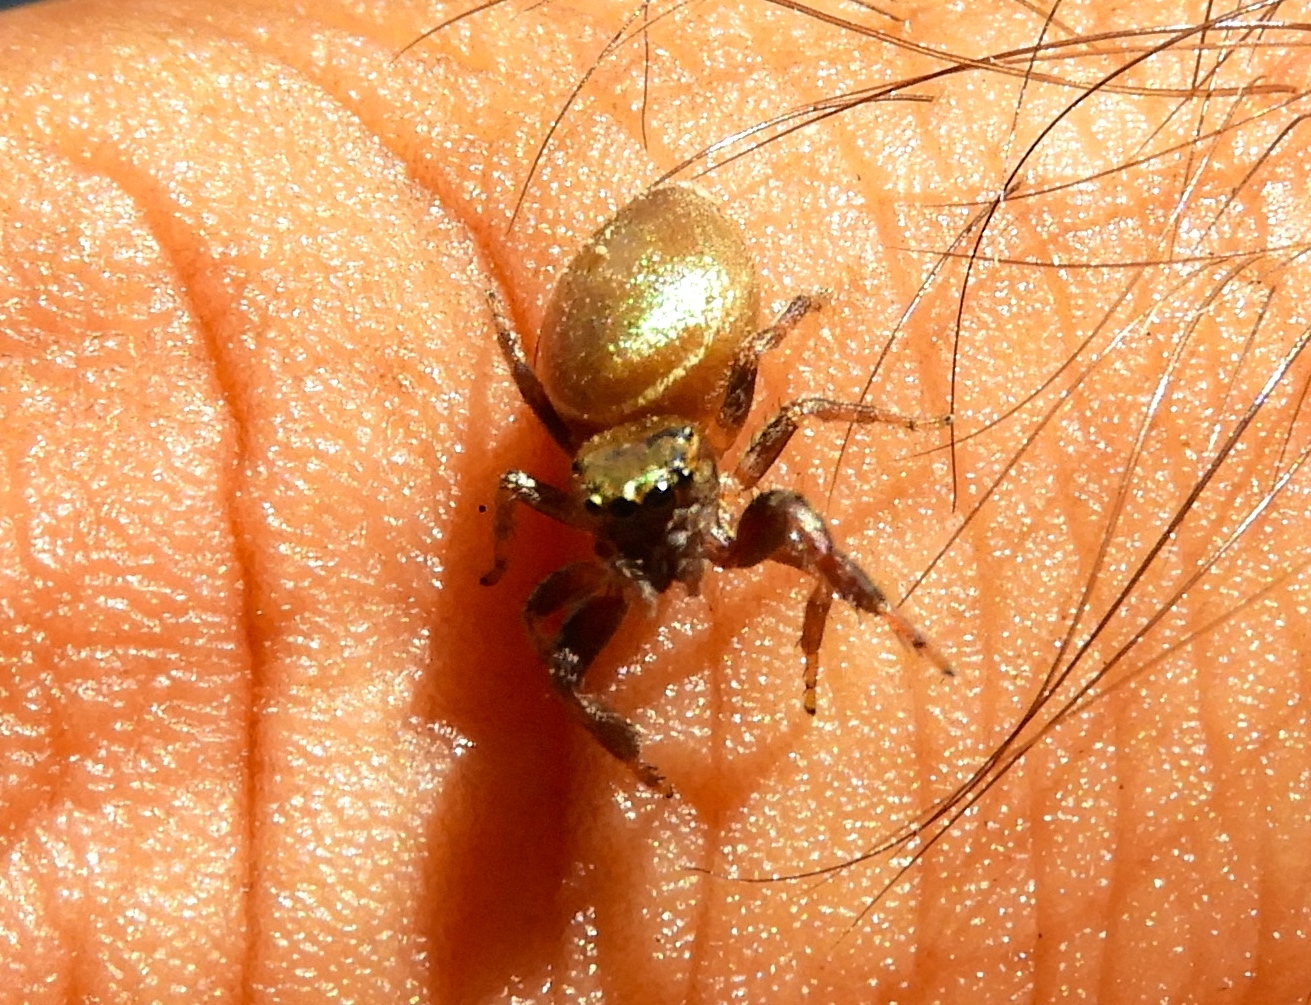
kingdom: Animalia
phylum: Arthropoda
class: Arachnida
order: Araneae
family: Salticidae
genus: Messua
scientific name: Messua limbata
